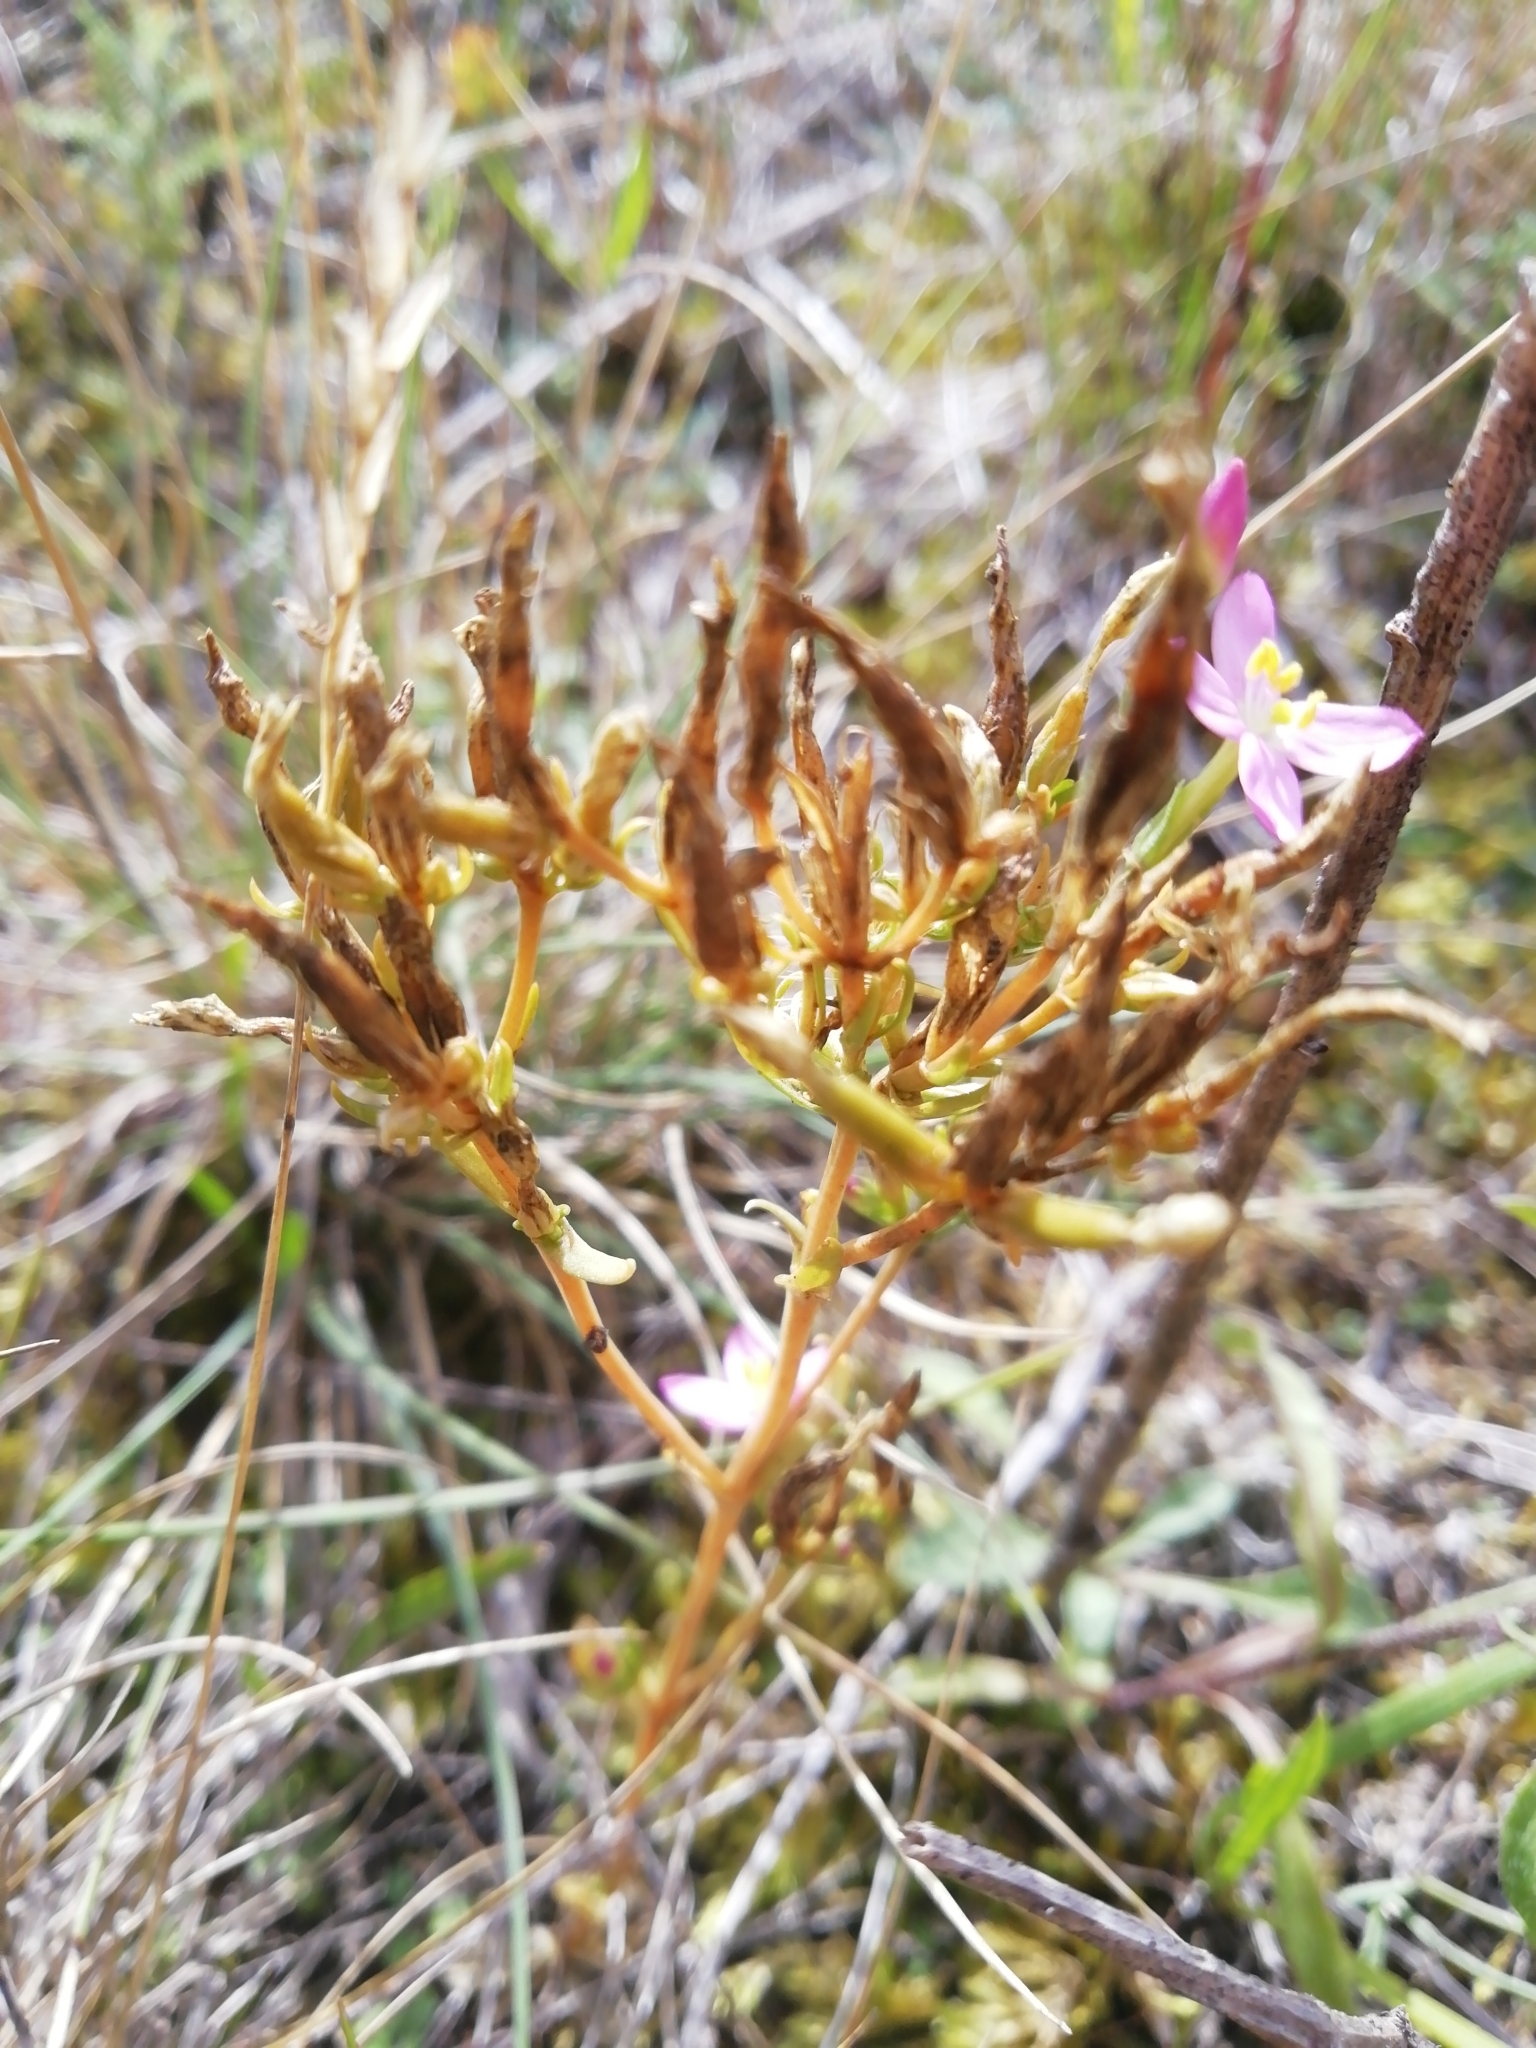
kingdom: Plantae
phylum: Tracheophyta
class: Magnoliopsida
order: Gentianales
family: Gentianaceae
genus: Centaurium
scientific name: Centaurium erythraea
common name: Common centaury
